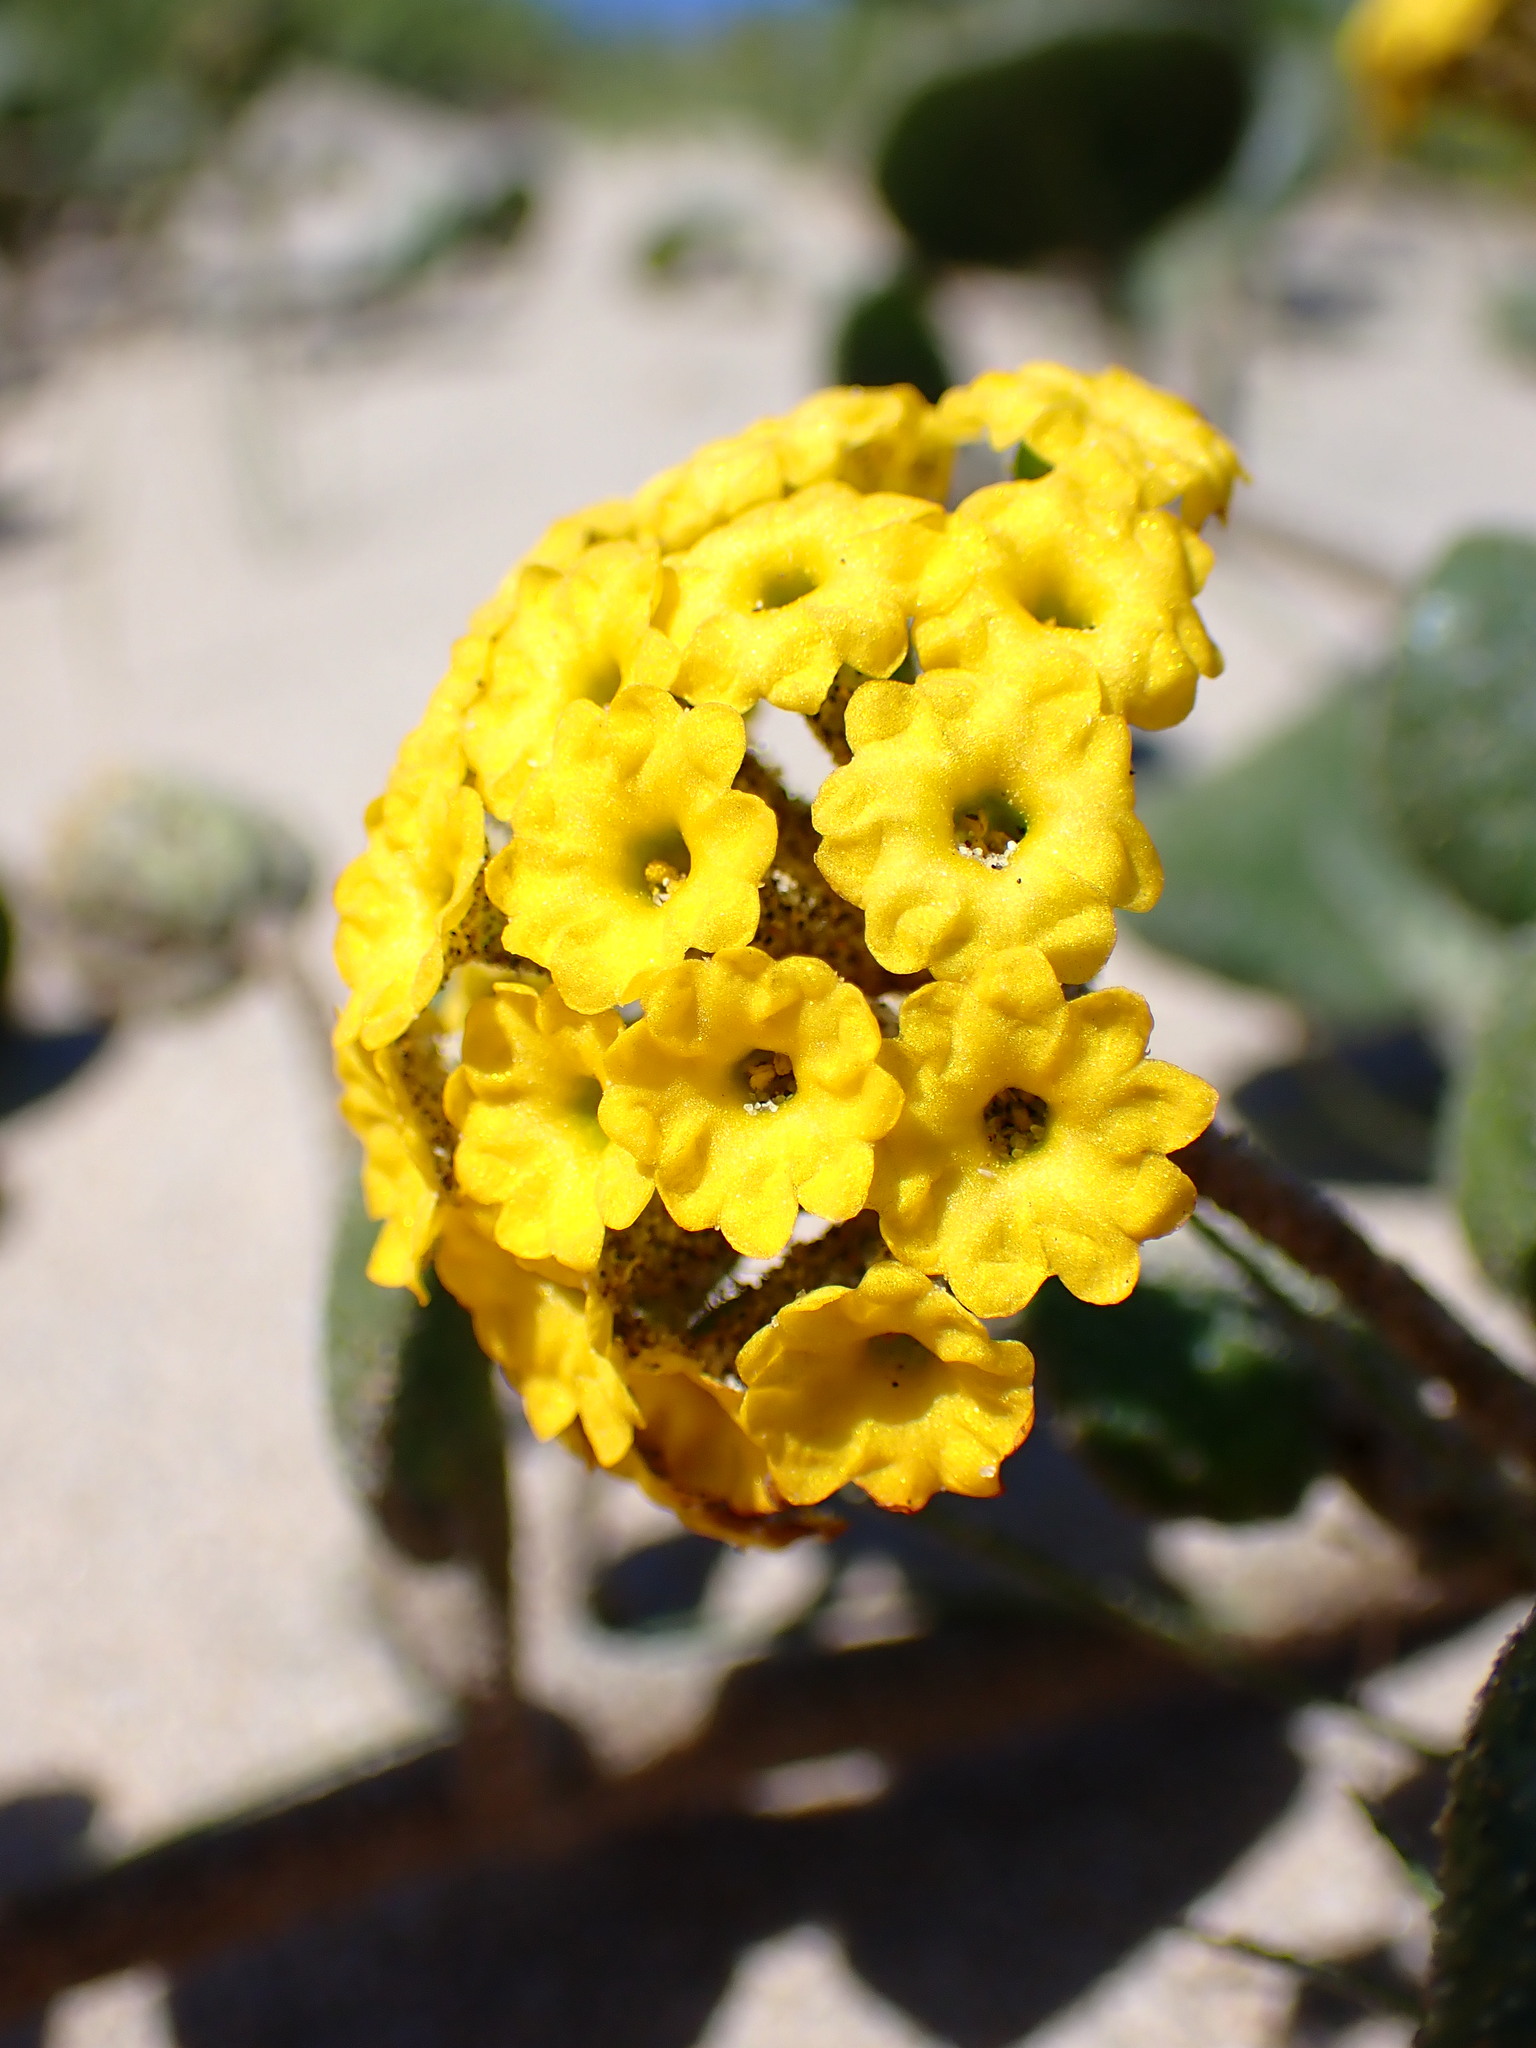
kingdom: Plantae
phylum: Tracheophyta
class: Magnoliopsida
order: Caryophyllales
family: Nyctaginaceae
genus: Abronia
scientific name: Abronia latifolia
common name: Yellow sand-verbena
